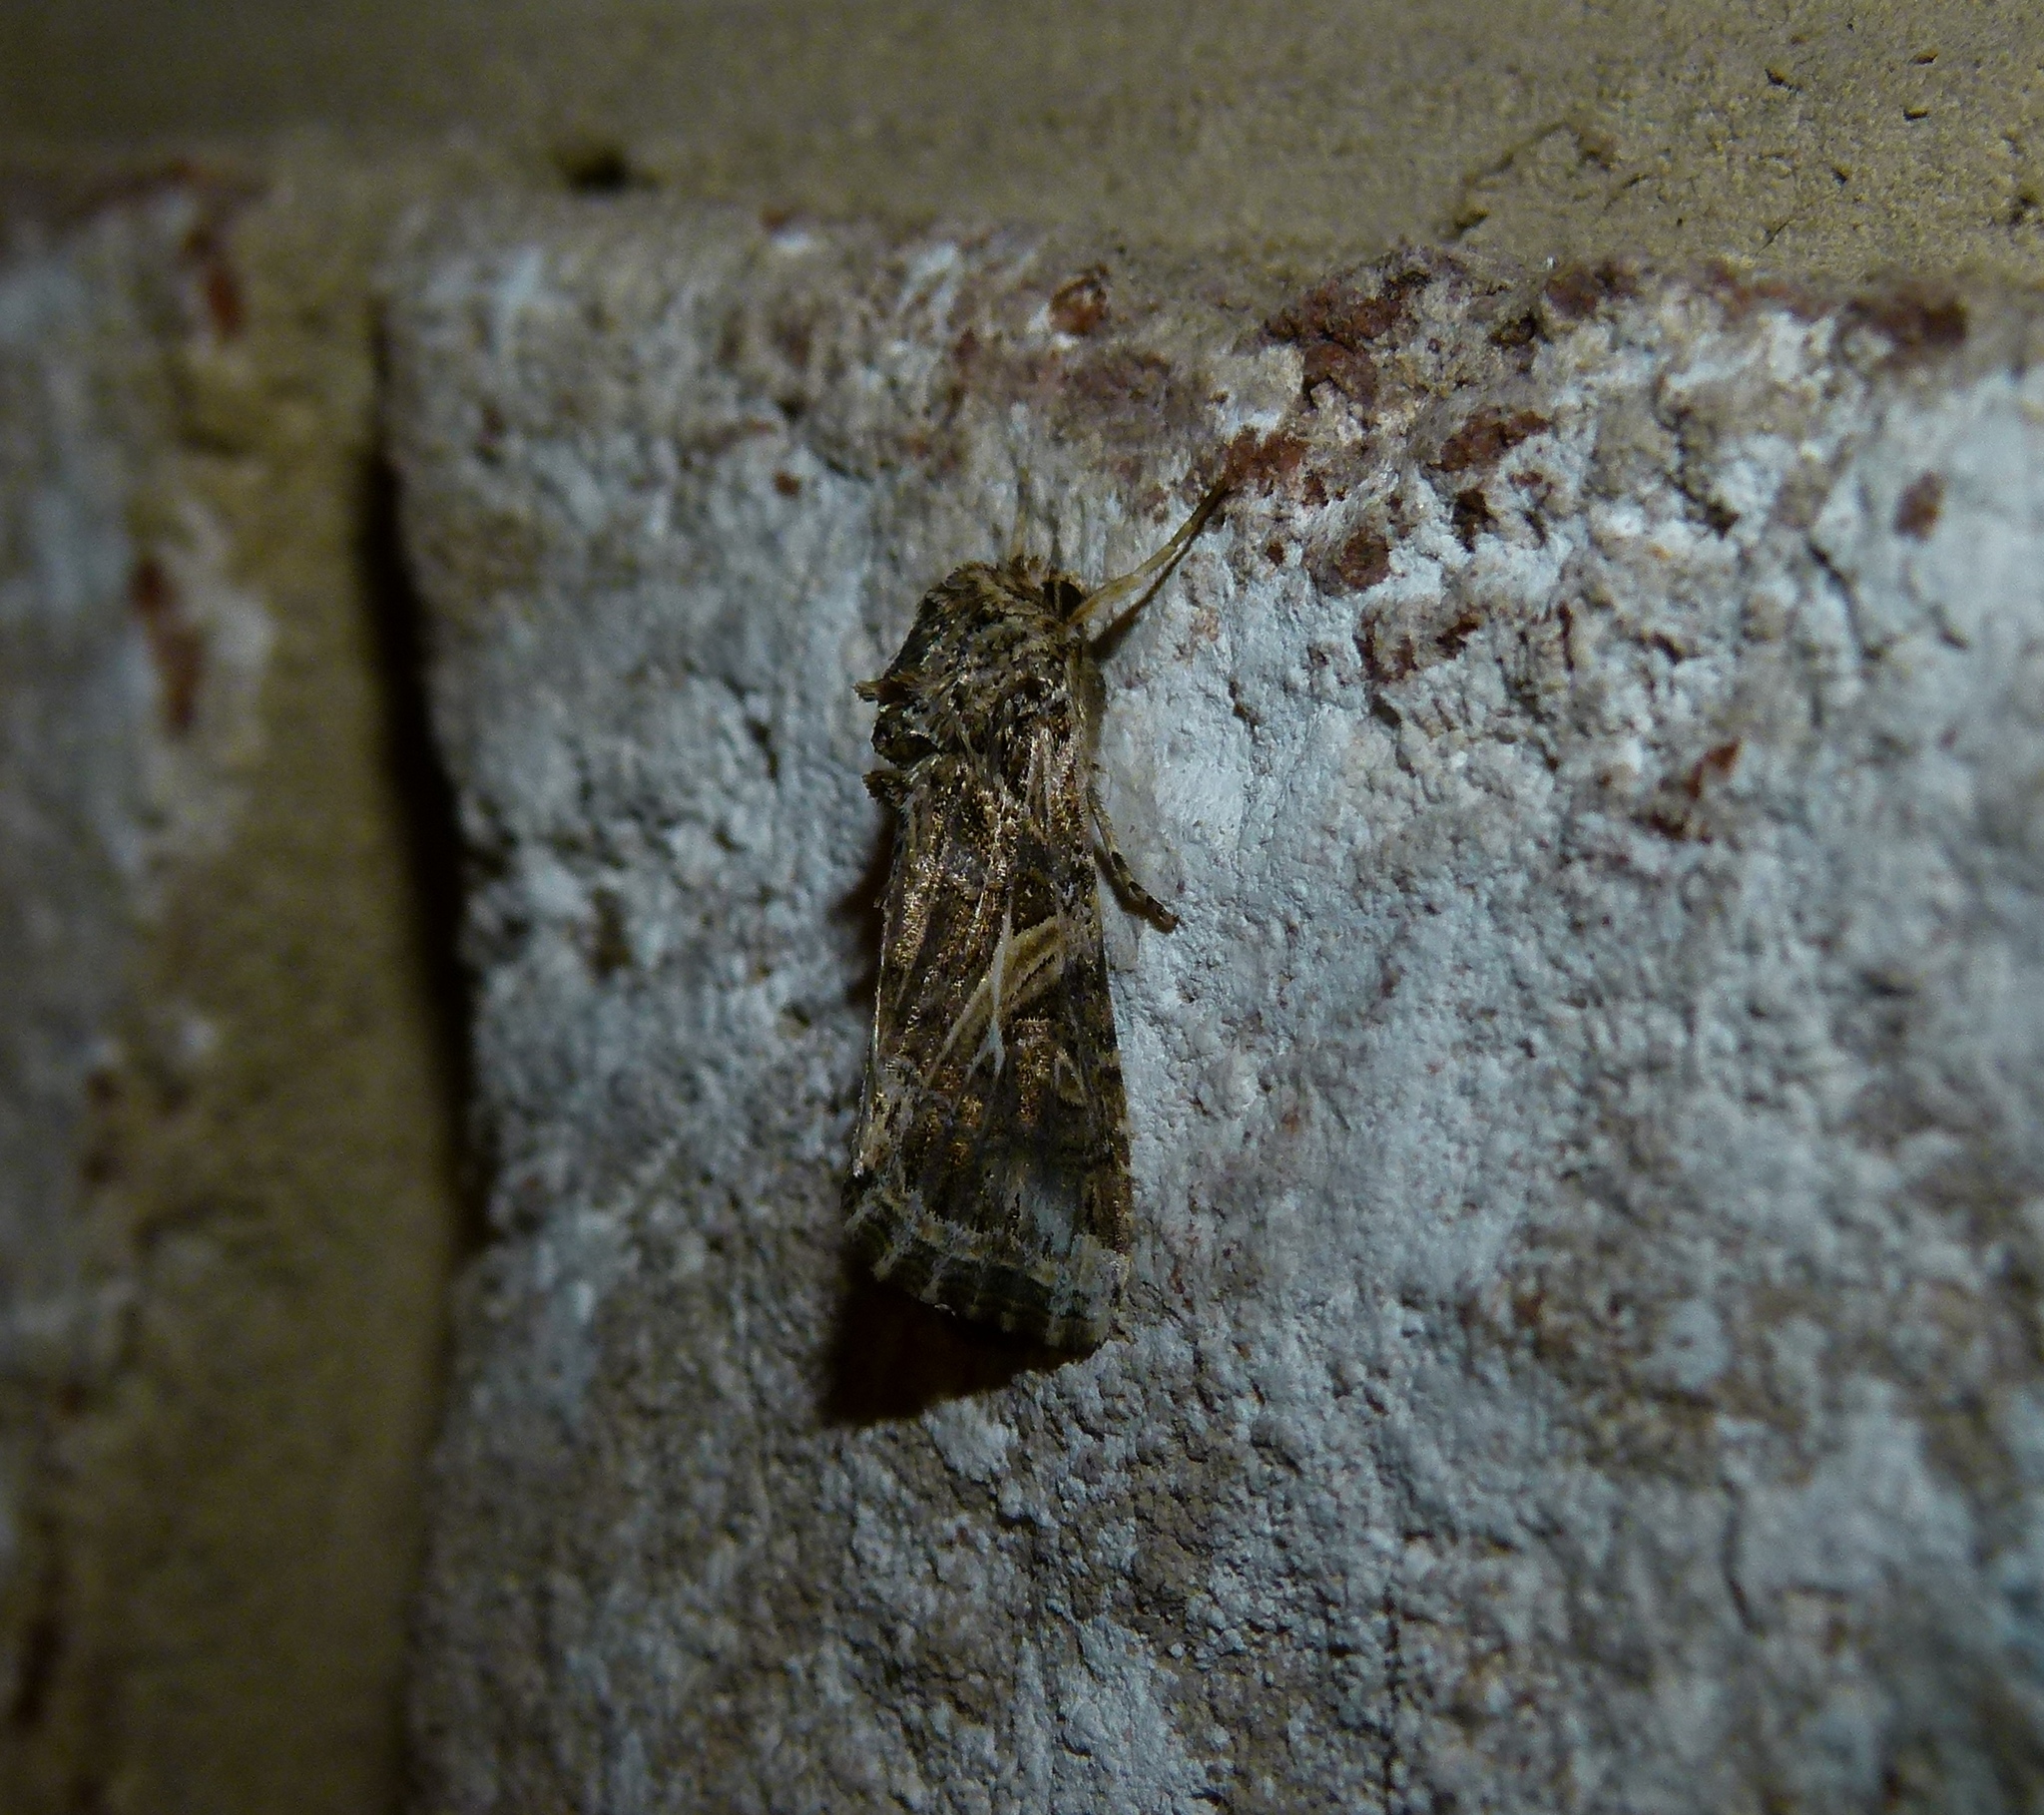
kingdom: Animalia
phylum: Arthropoda
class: Insecta
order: Lepidoptera
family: Noctuidae
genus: Spodoptera
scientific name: Spodoptera ornithogalli
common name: Yellow-striped armyworm
